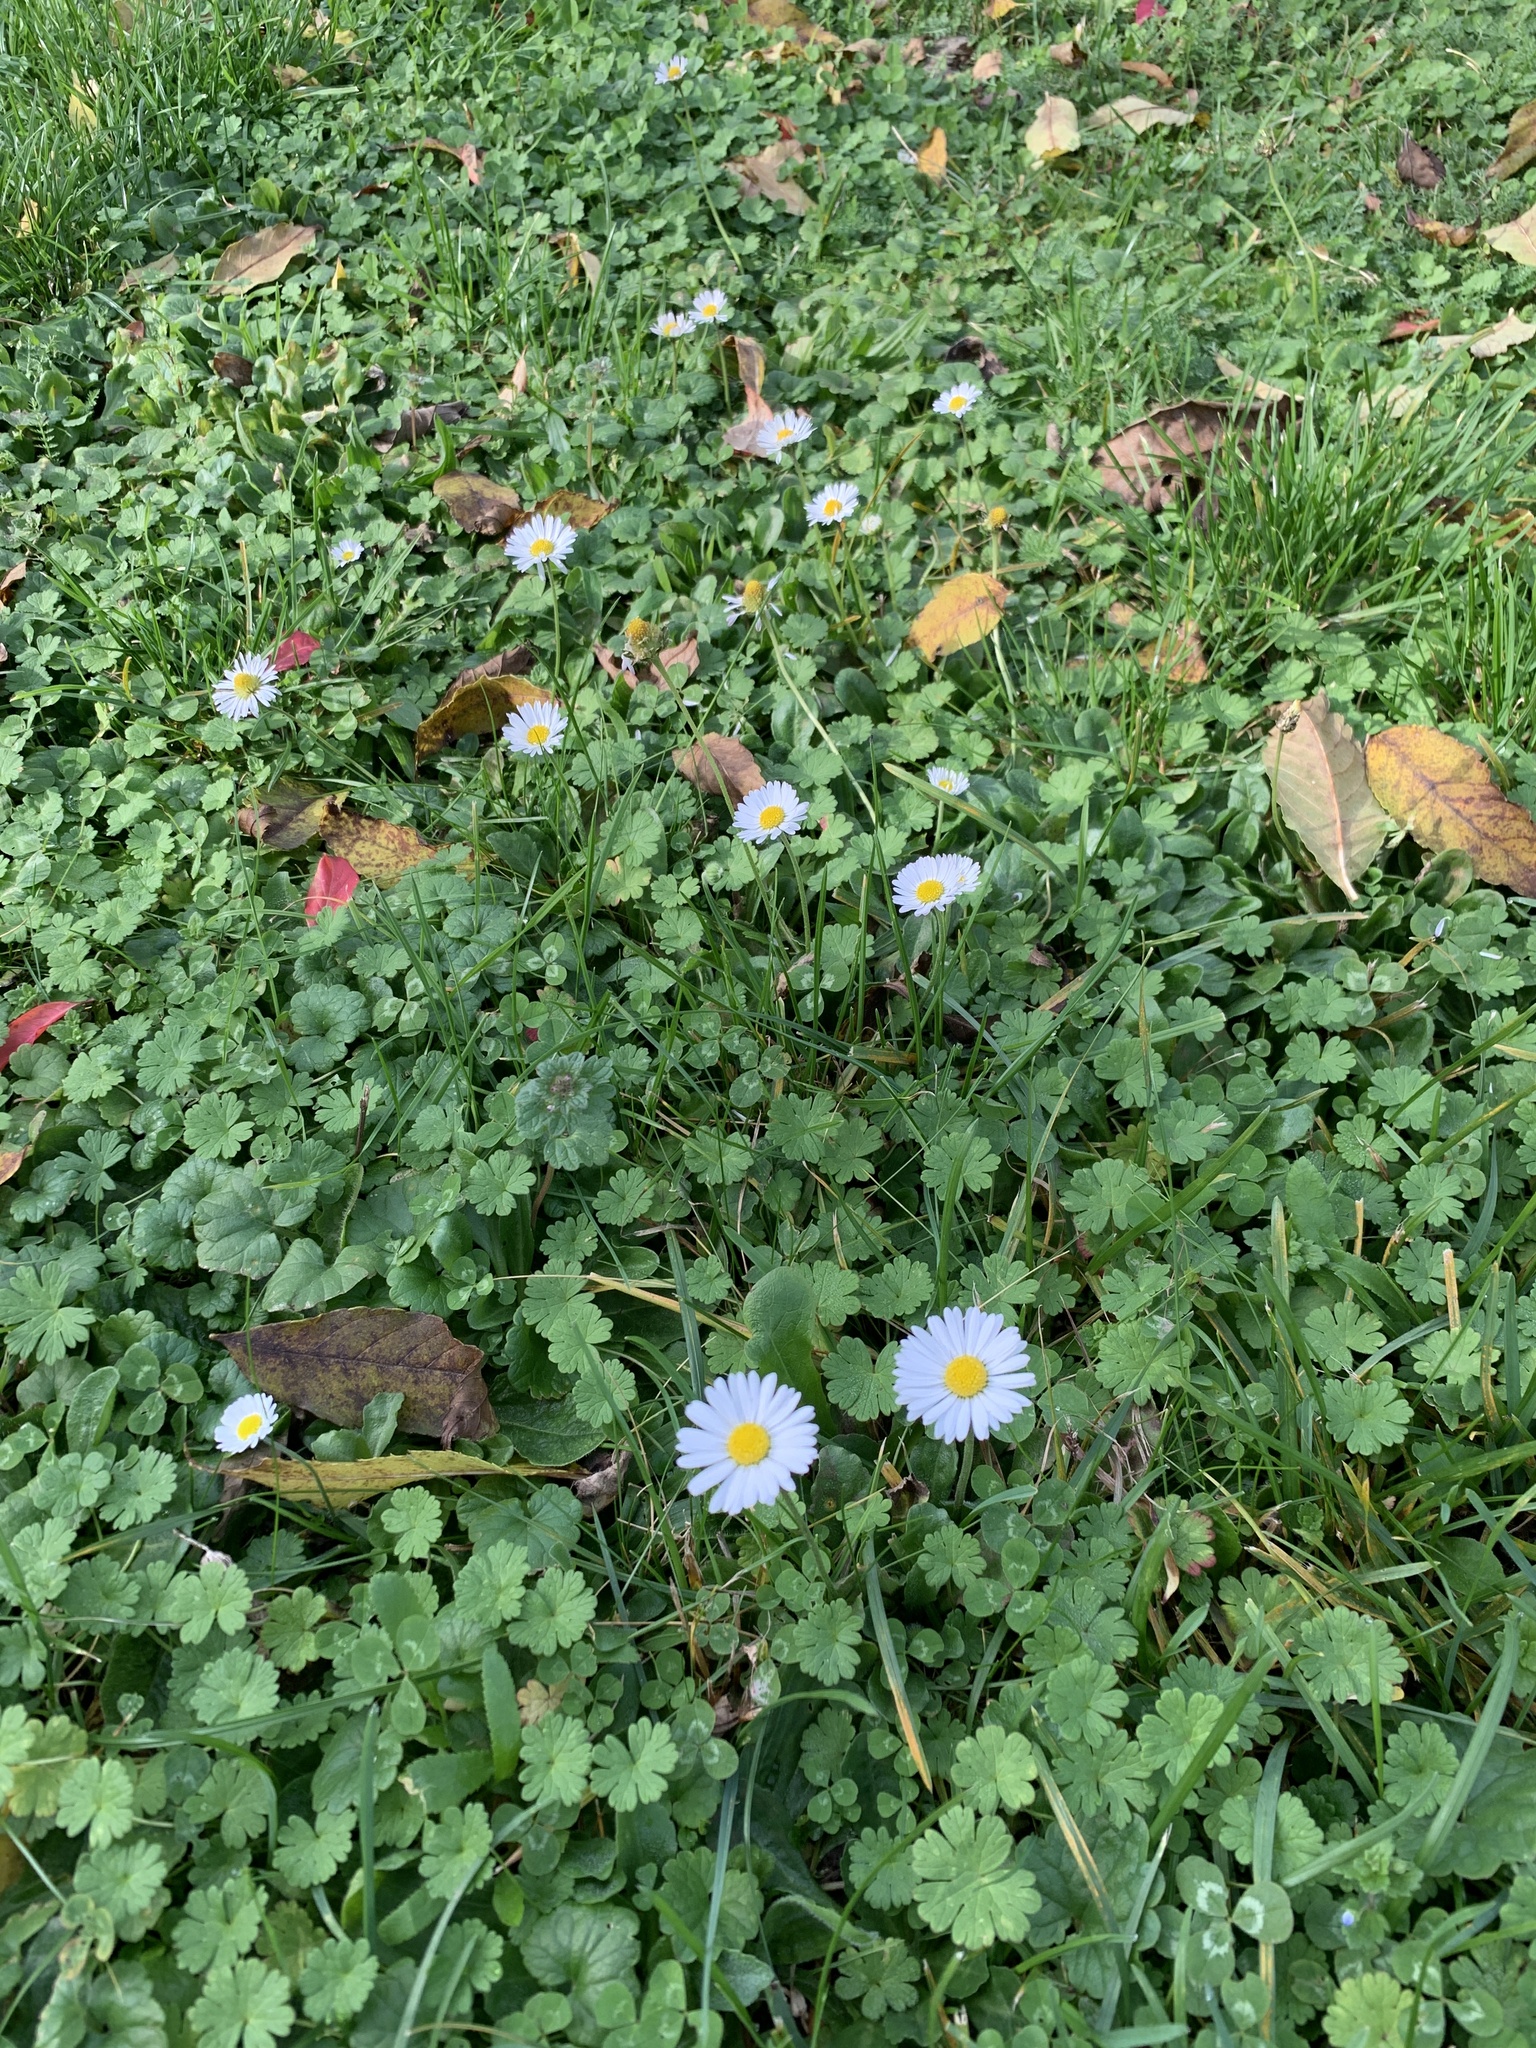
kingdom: Plantae
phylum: Tracheophyta
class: Magnoliopsida
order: Asterales
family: Asteraceae
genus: Bellis
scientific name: Bellis perennis
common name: Lawndaisy
